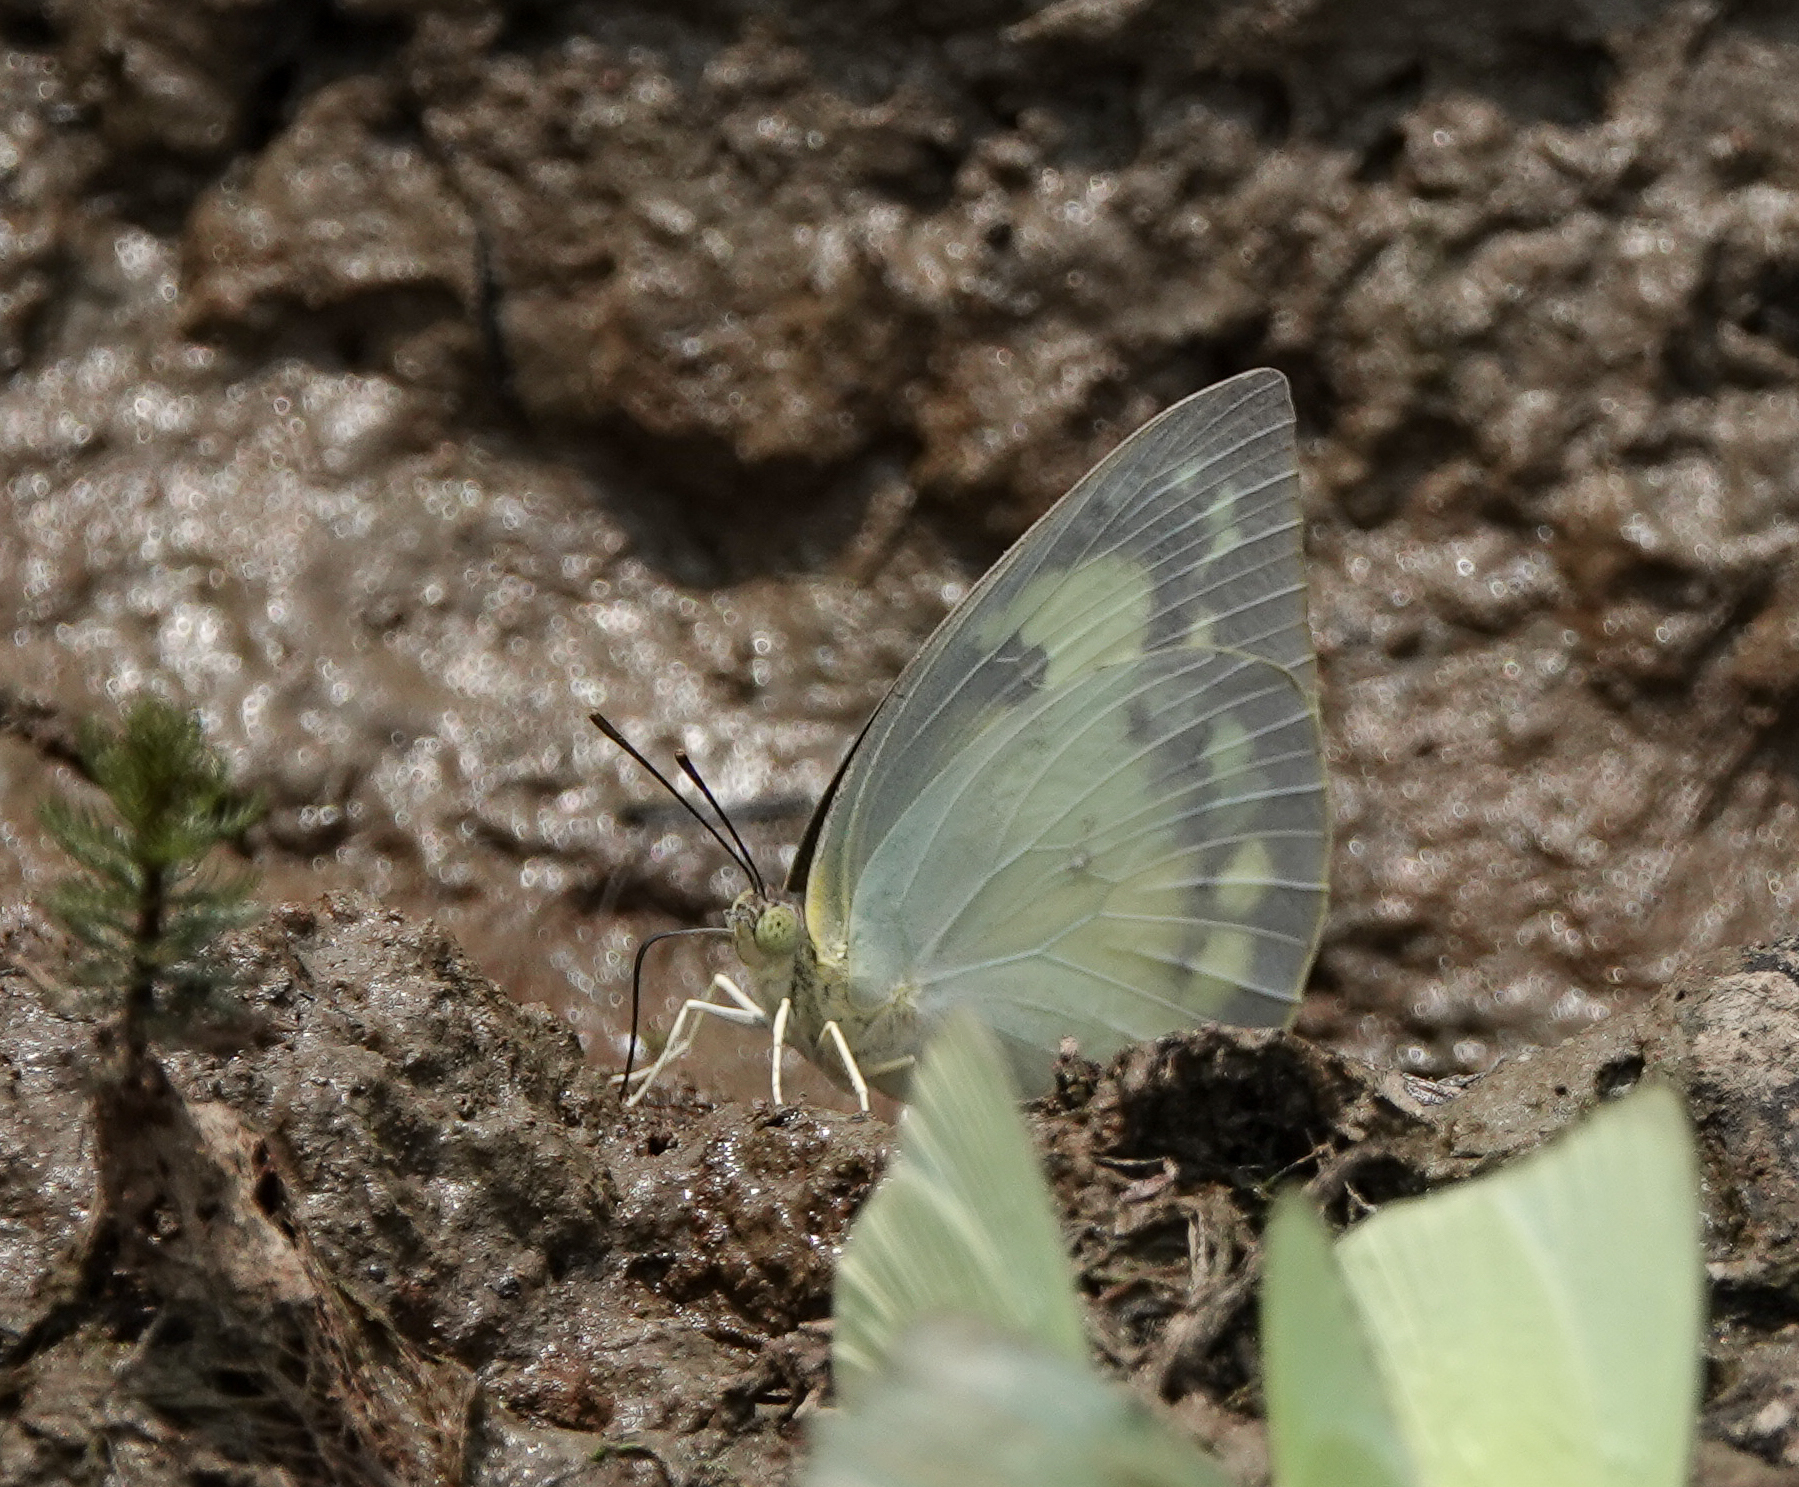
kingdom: Animalia
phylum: Arthropoda
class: Insecta
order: Lepidoptera
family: Pieridae
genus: Catopsilia
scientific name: Catopsilia pomona
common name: Common emigrant
